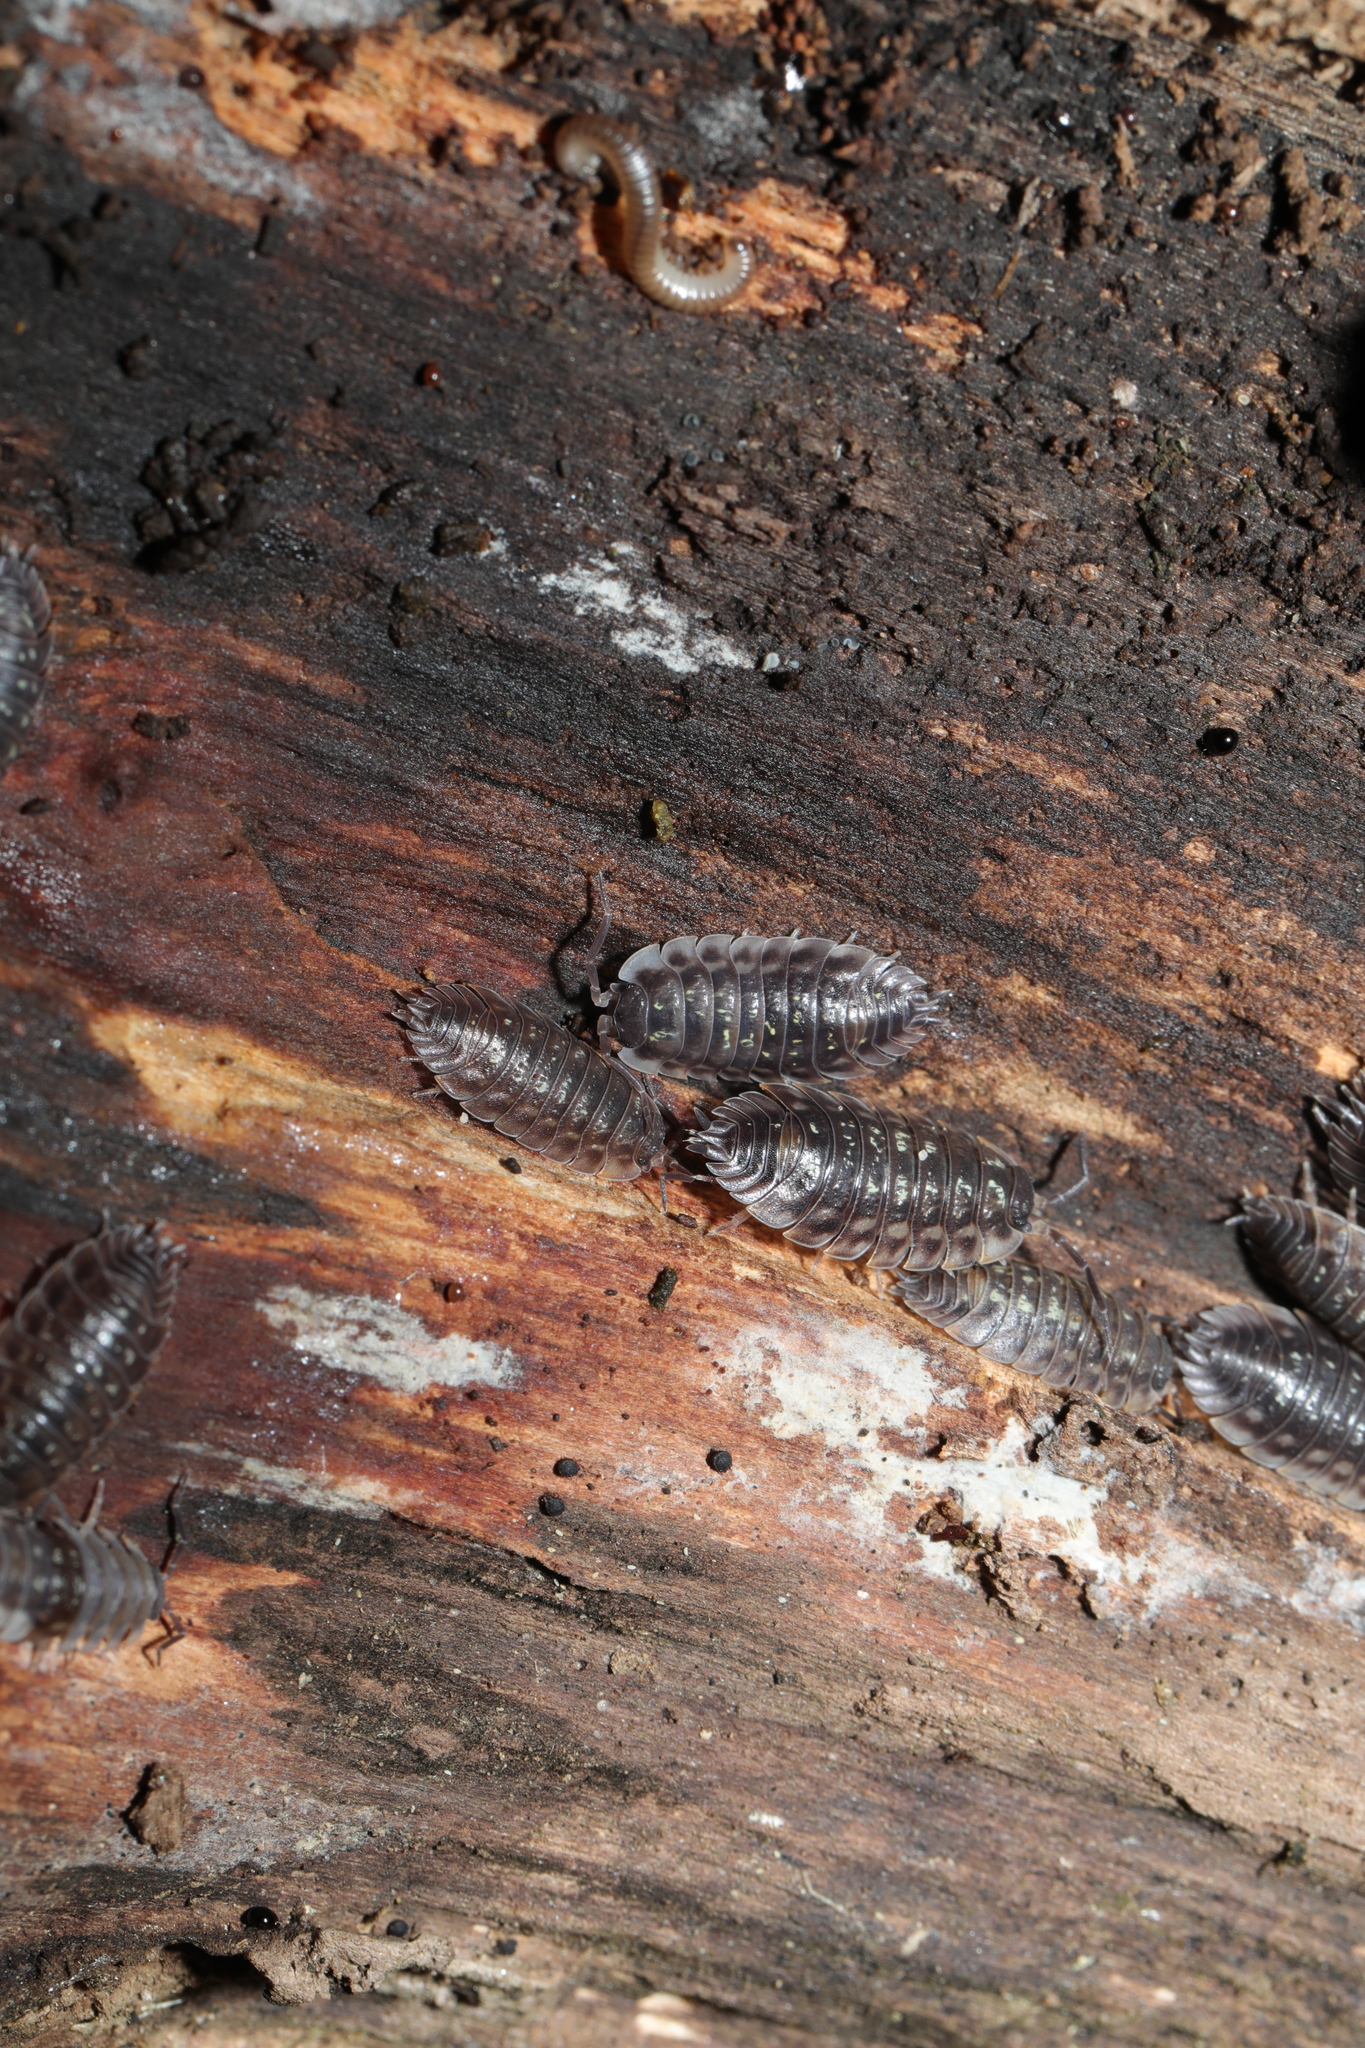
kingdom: Animalia
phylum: Arthropoda
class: Malacostraca
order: Isopoda
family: Oniscidae
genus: Oniscus
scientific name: Oniscus asellus
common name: Common shiny woodlouse
